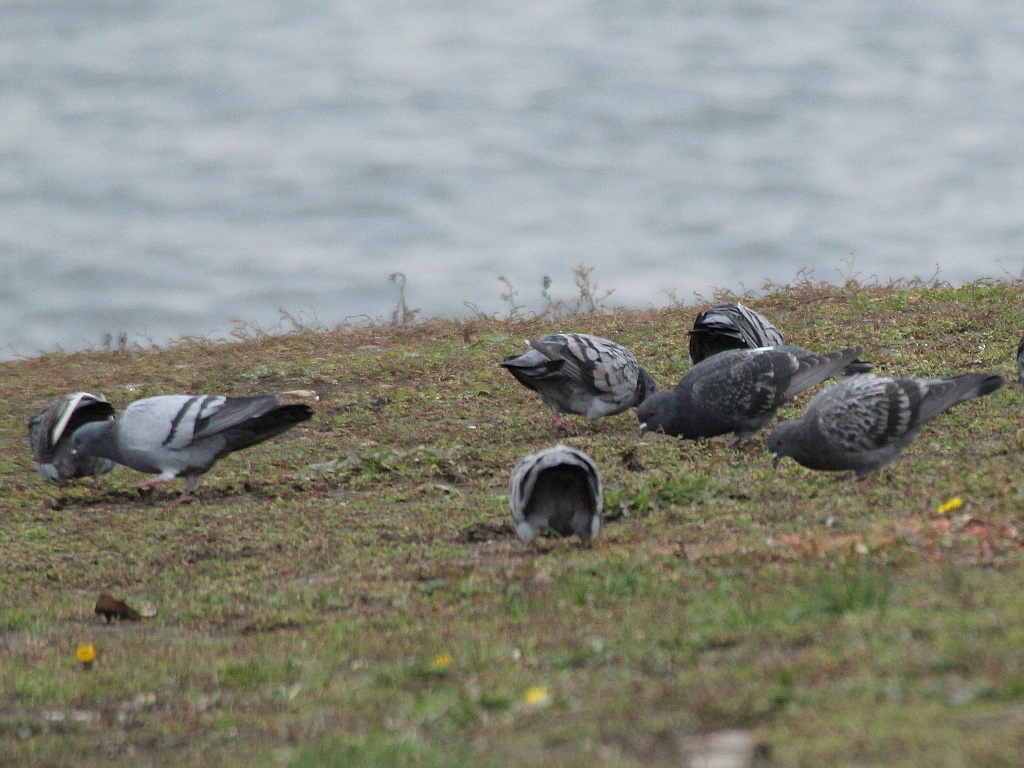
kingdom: Animalia
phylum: Chordata
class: Aves
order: Columbiformes
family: Columbidae
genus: Columba
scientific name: Columba livia
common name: Rock pigeon
